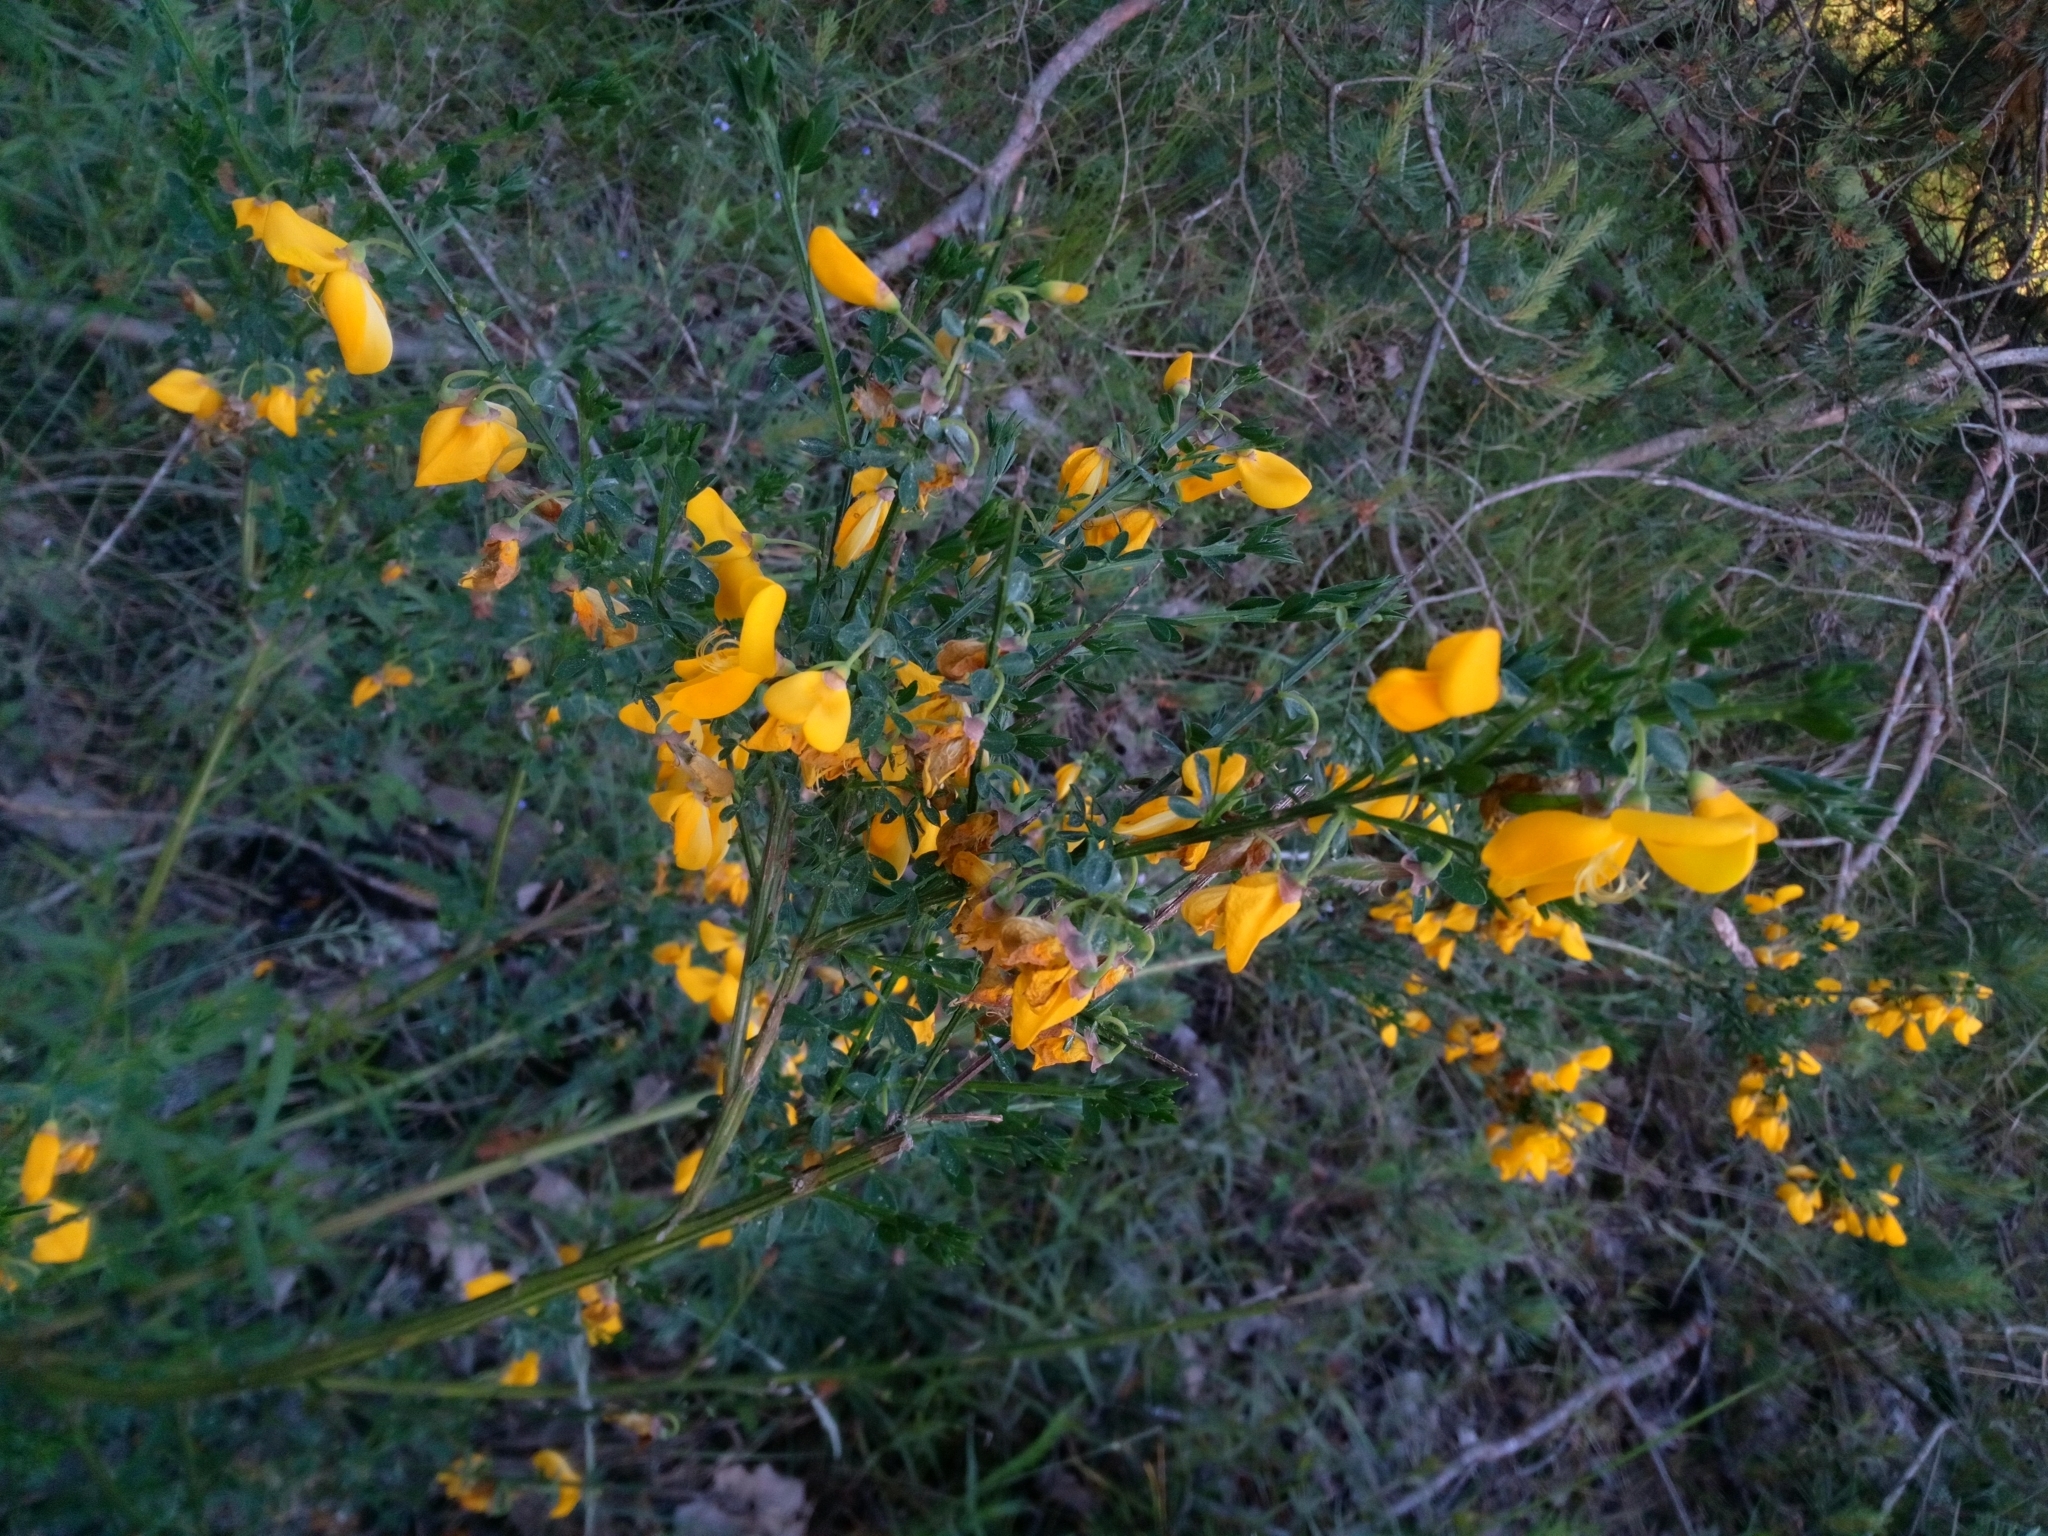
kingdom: Plantae
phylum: Tracheophyta
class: Magnoliopsida
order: Fabales
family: Fabaceae
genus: Cytisus
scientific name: Cytisus scoparius
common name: Scotch broom
